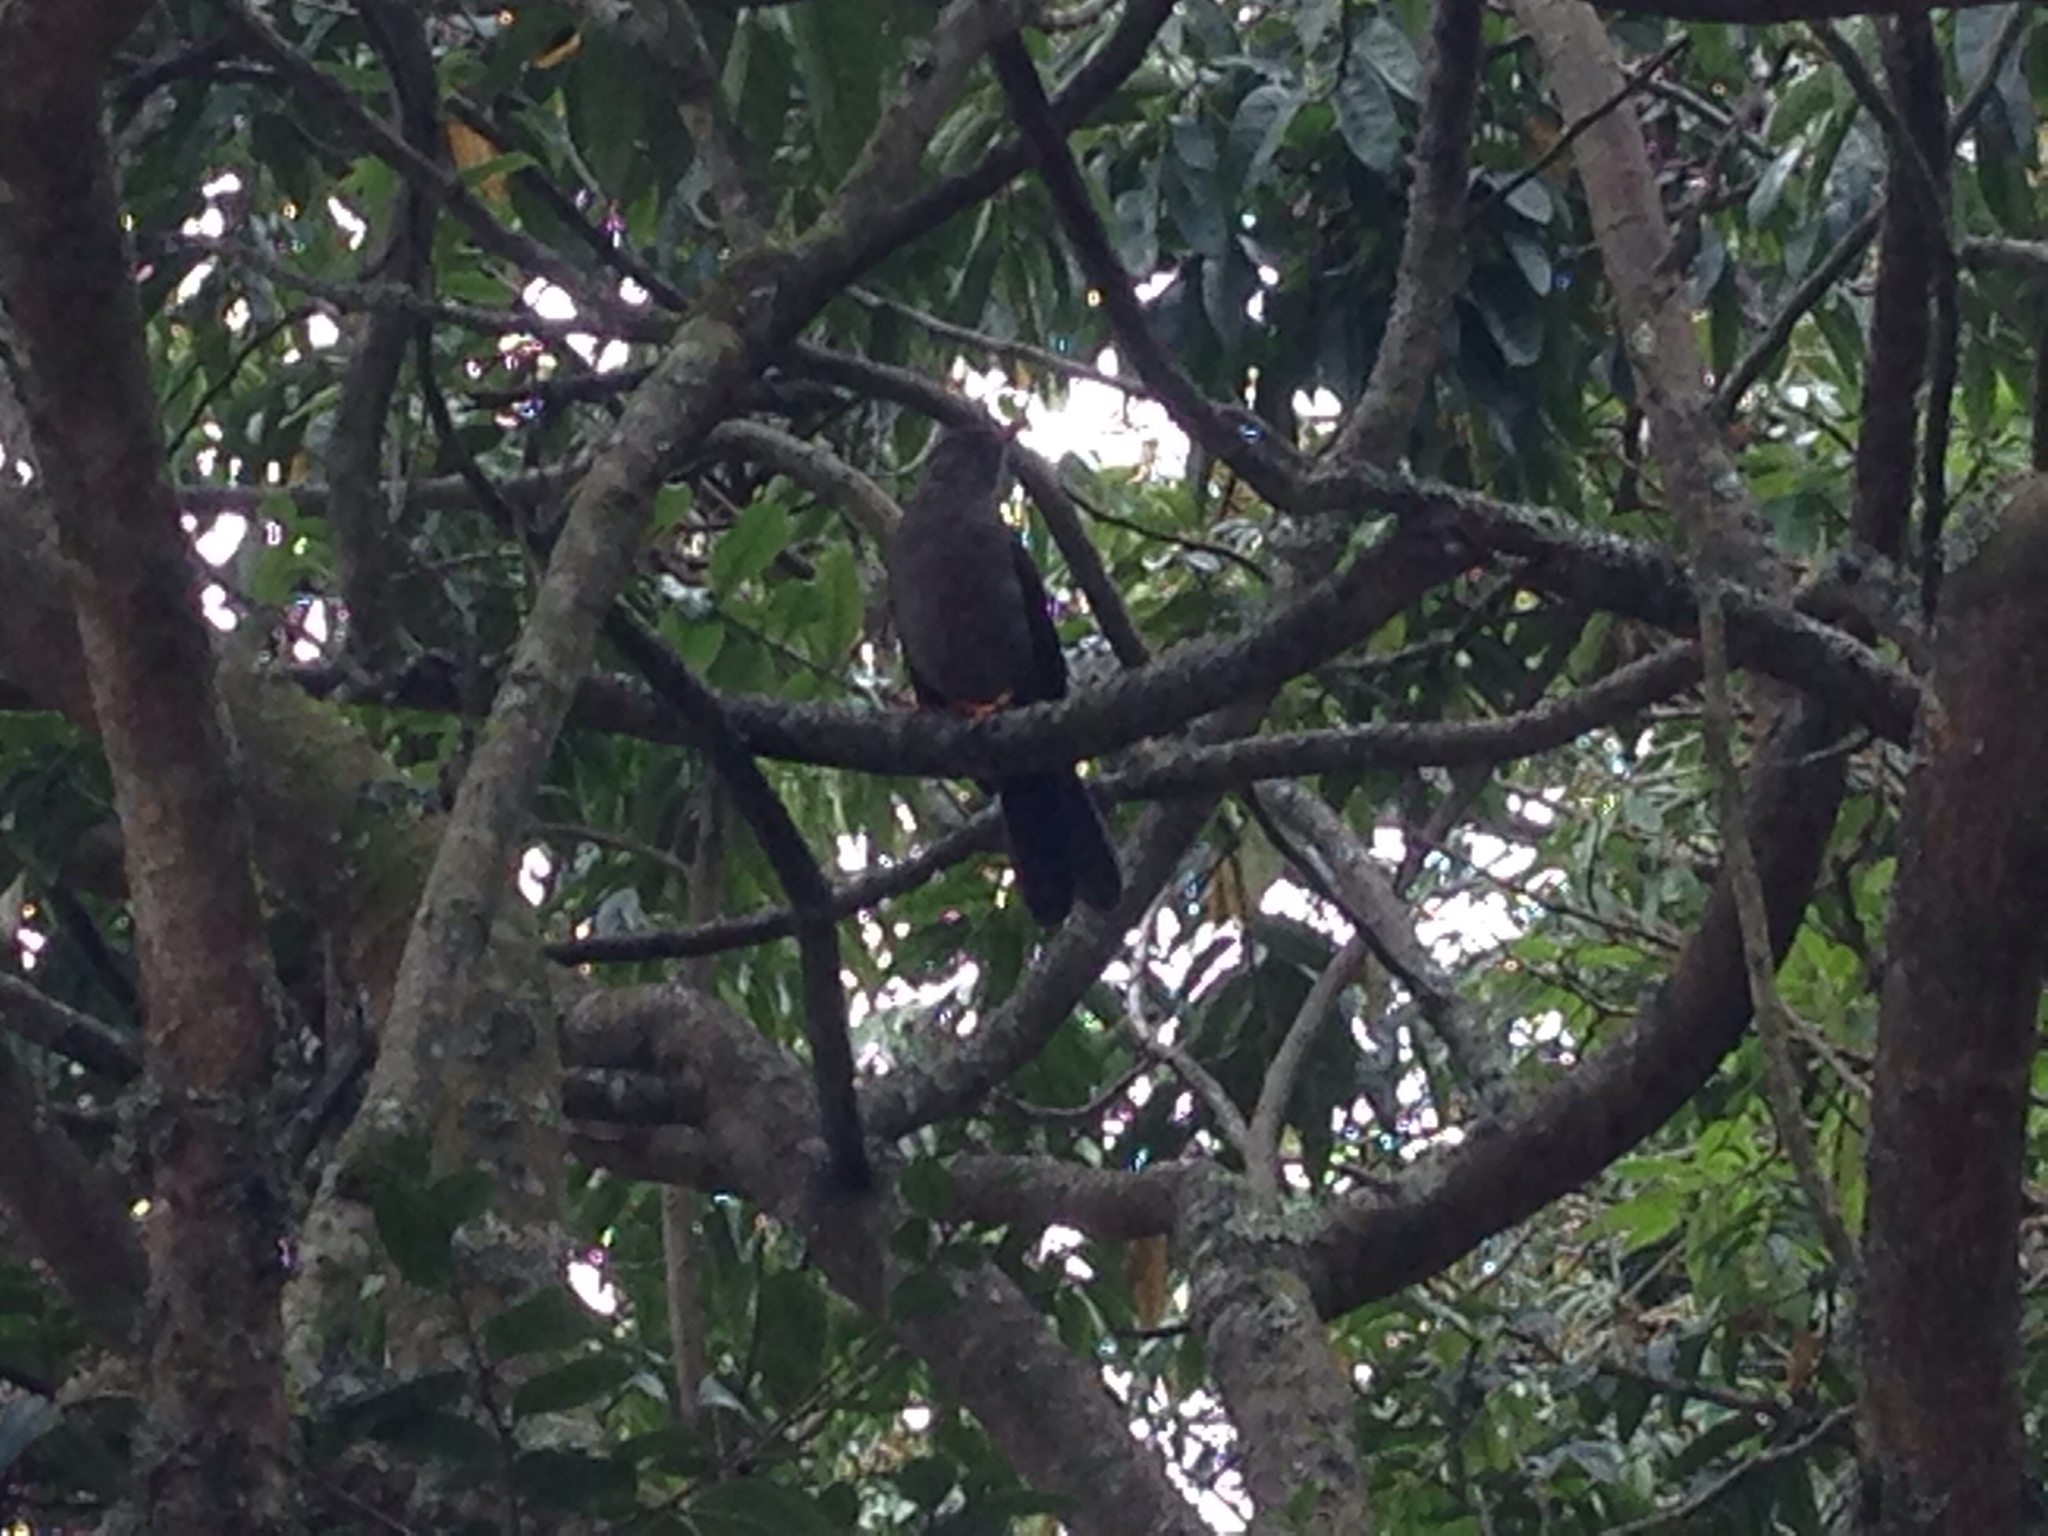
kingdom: Animalia
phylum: Chordata
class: Aves
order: Passeriformes
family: Turdidae
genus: Turdus
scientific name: Turdus fuscater
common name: Great thrush
